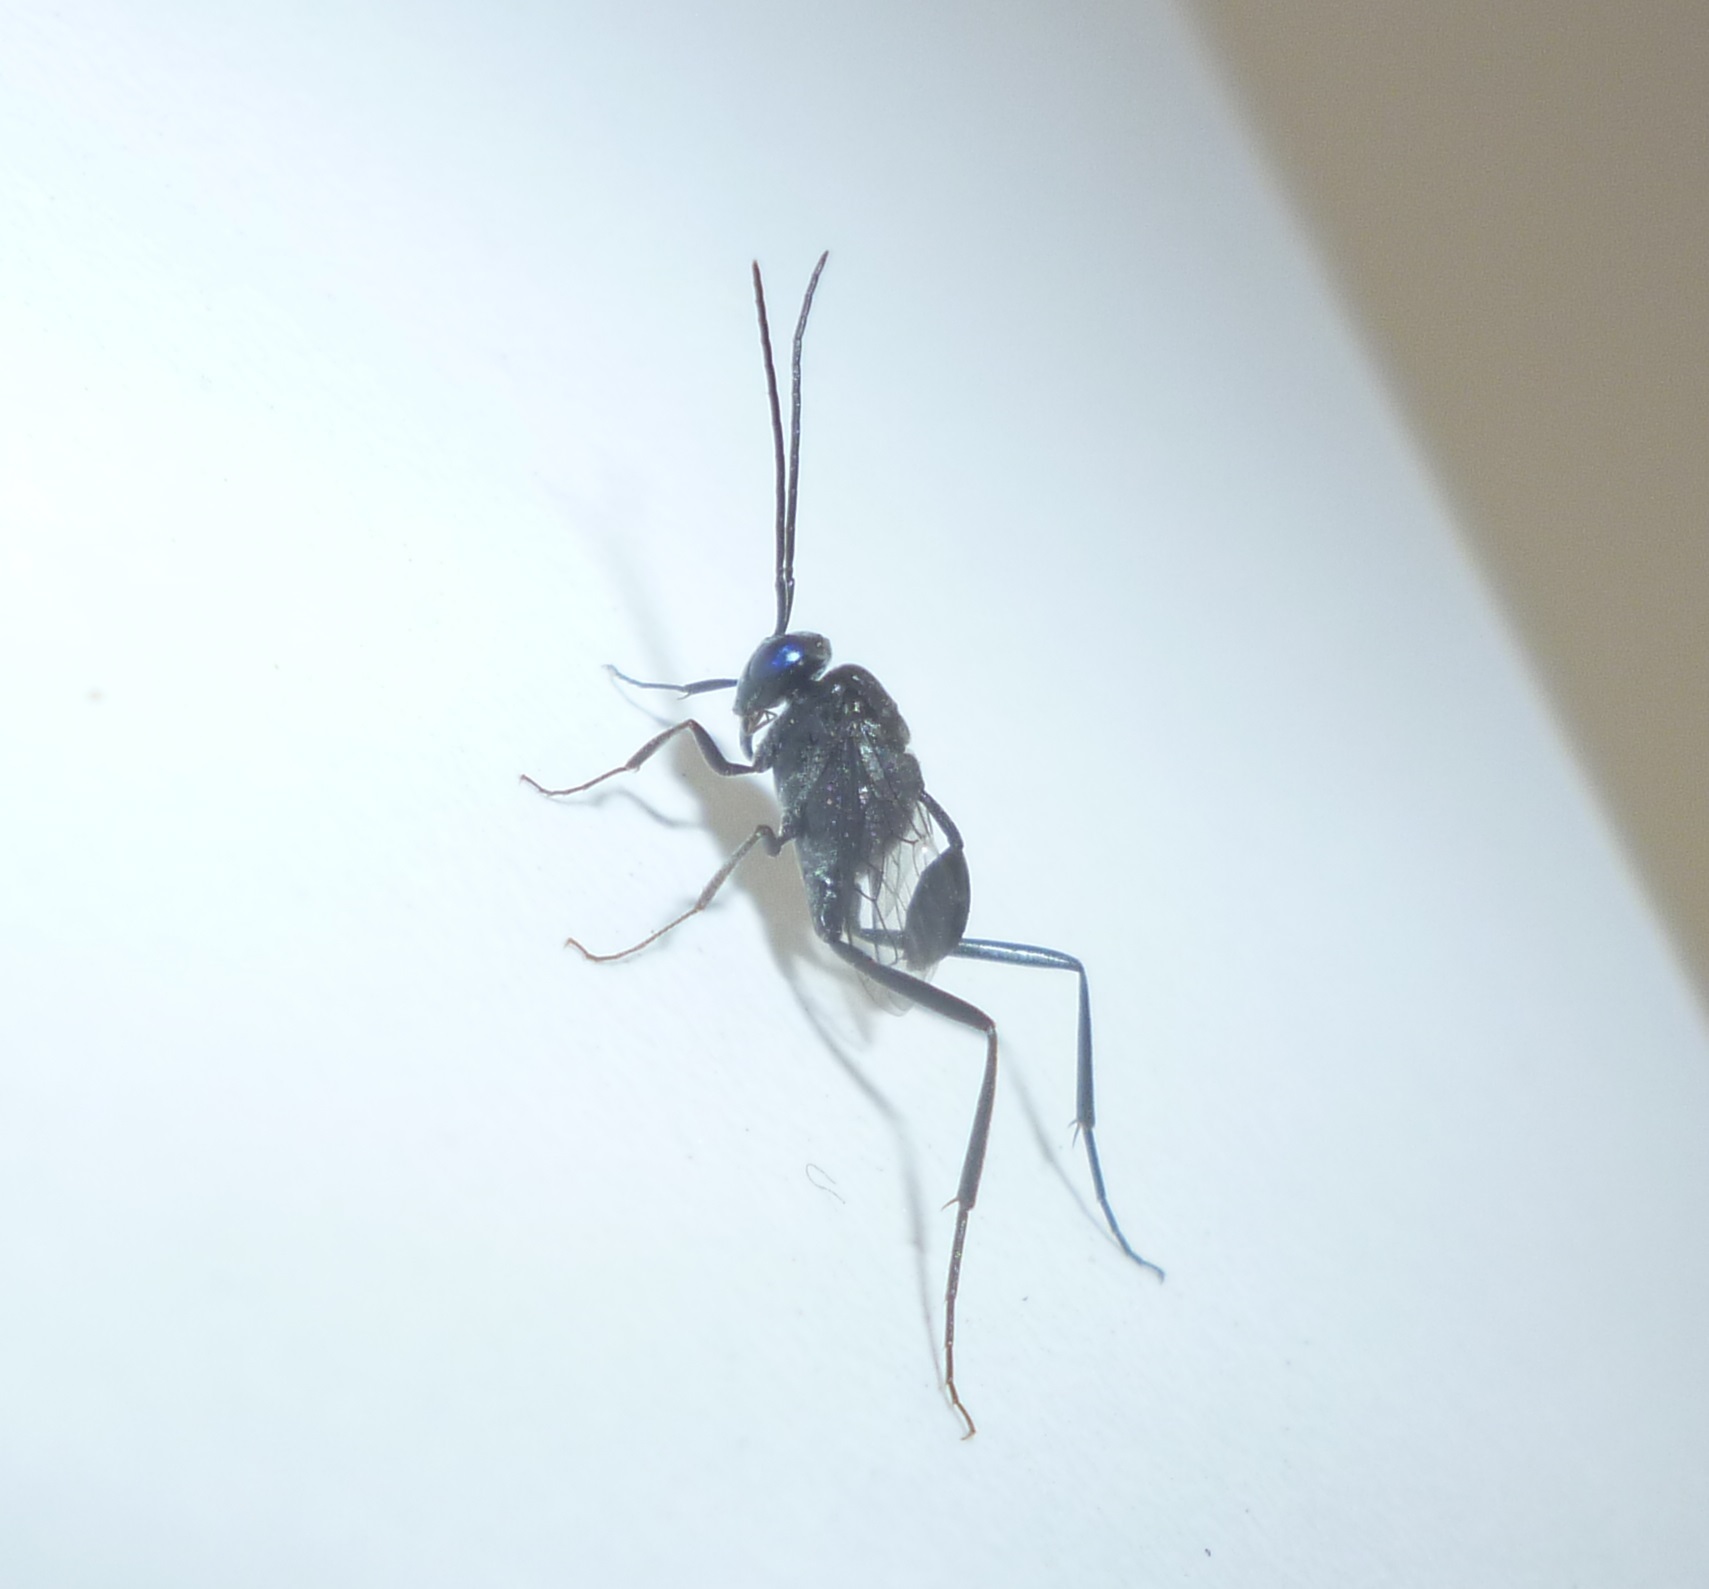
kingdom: Animalia
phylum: Arthropoda
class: Insecta
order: Hymenoptera
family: Evaniidae
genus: Evania
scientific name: Evania appendigaster
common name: Ensign wasp
